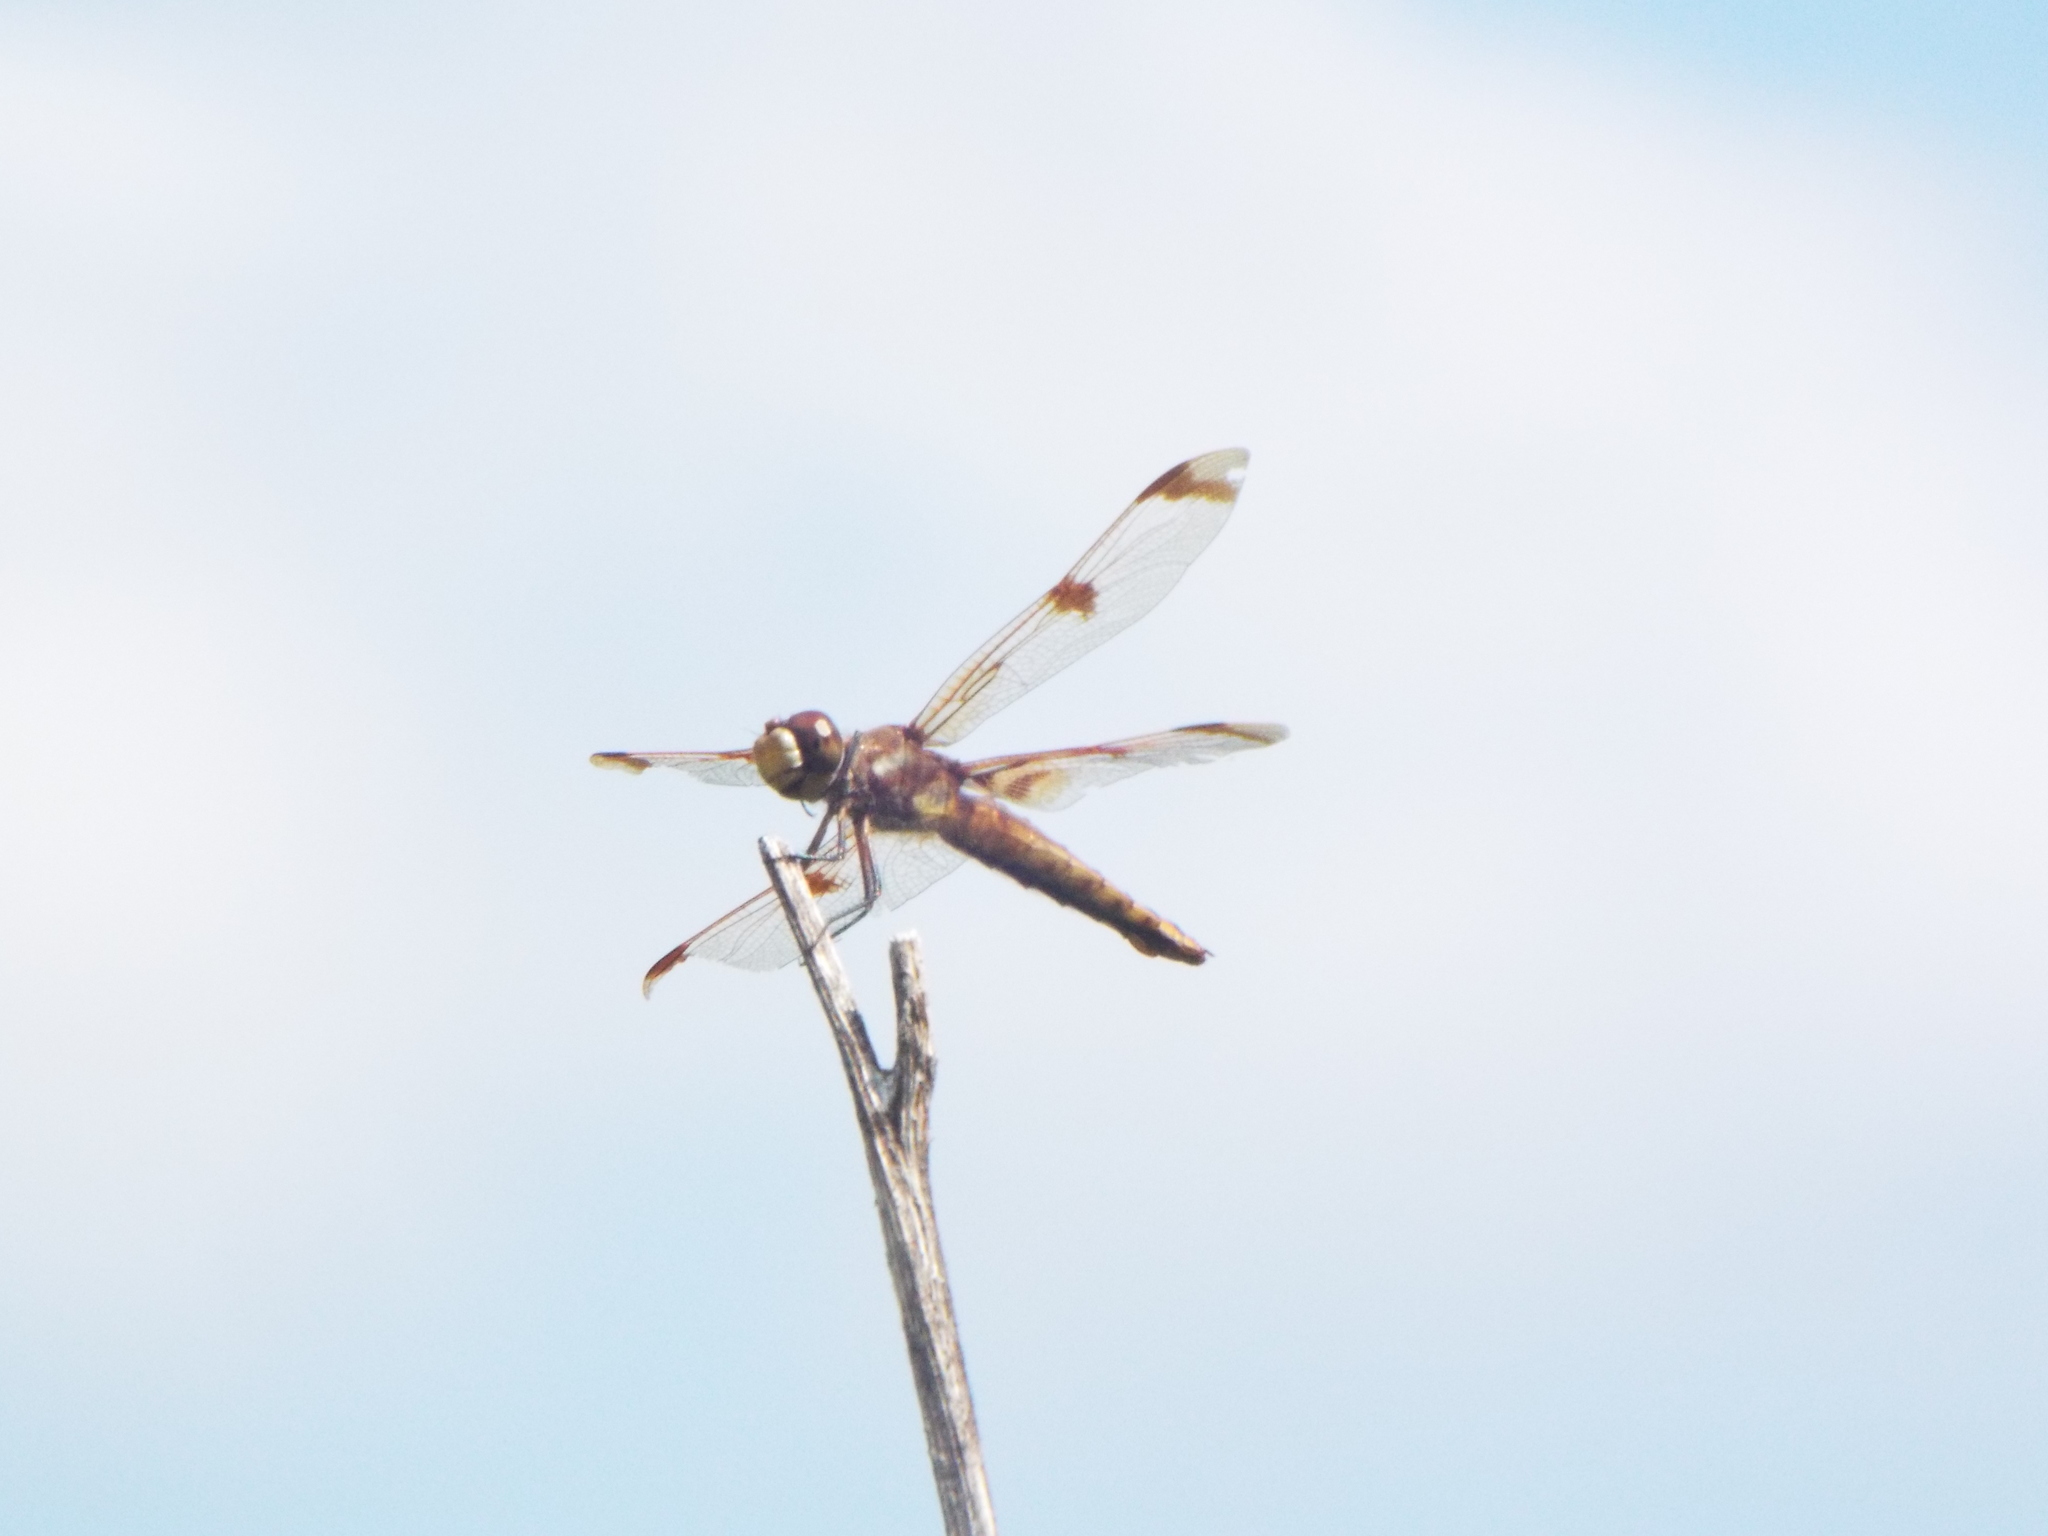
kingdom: Animalia
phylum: Arthropoda
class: Insecta
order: Odonata
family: Libellulidae
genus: Libellula
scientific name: Libellula semifasciata
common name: Painted skimmer
